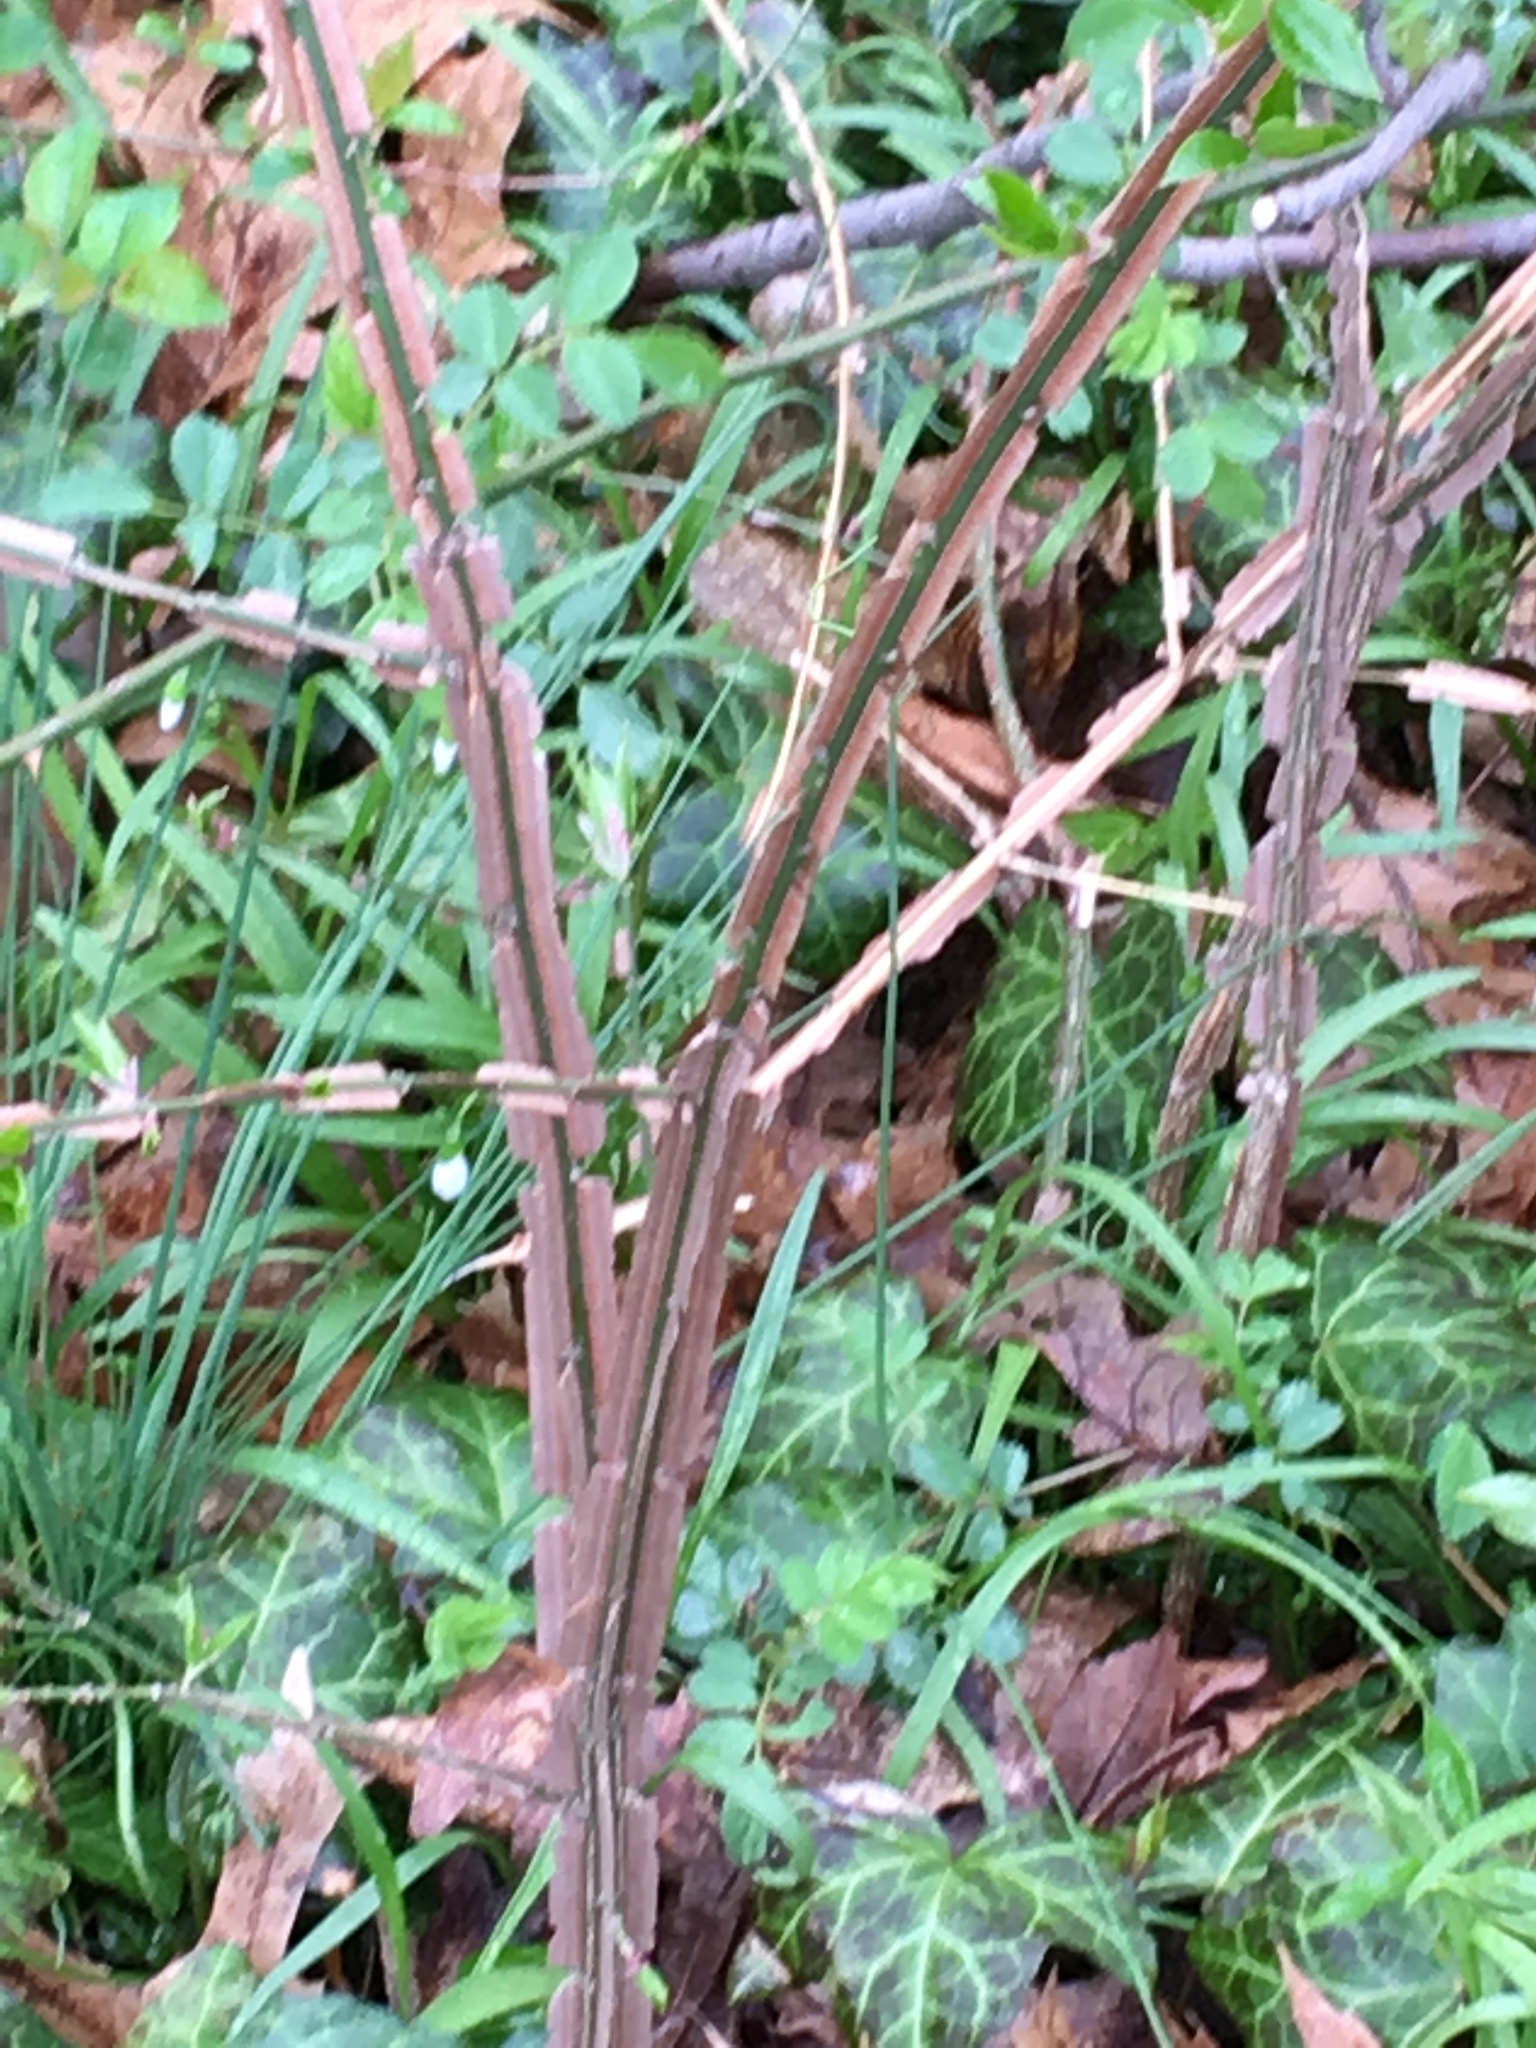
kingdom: Plantae
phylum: Tracheophyta
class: Magnoliopsida
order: Celastrales
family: Celastraceae
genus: Euonymus
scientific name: Euonymus alatus
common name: Winged euonymus
